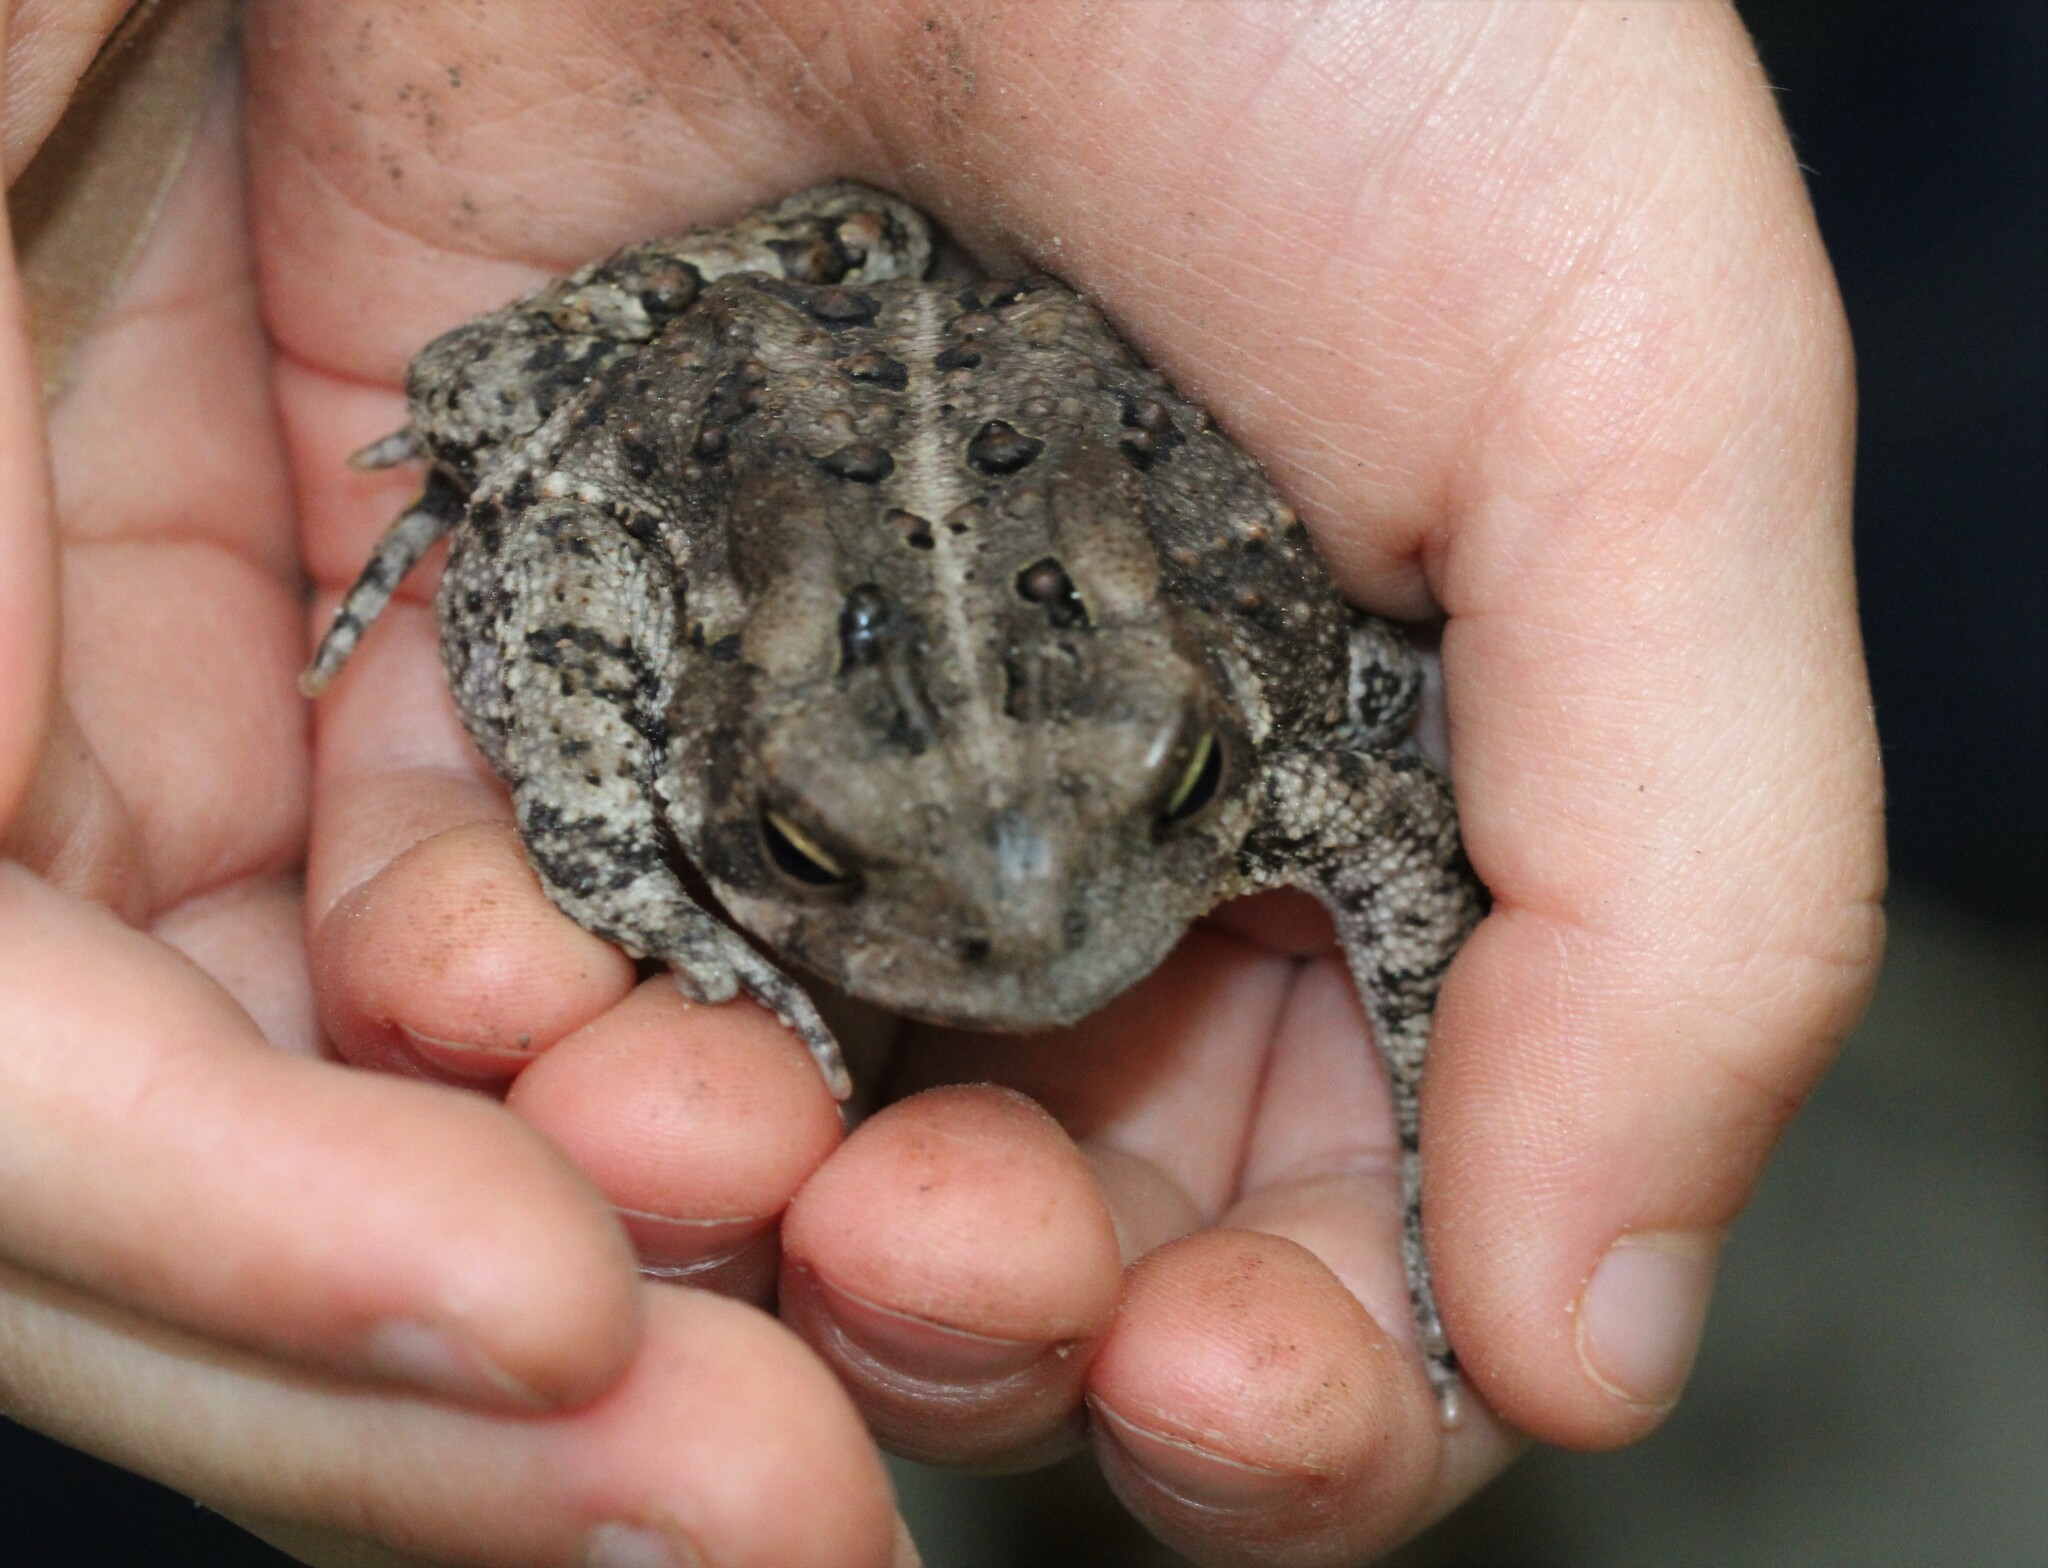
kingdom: Animalia
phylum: Chordata
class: Amphibia
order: Anura
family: Bufonidae
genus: Anaxyrus
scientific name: Anaxyrus americanus
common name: American toad
